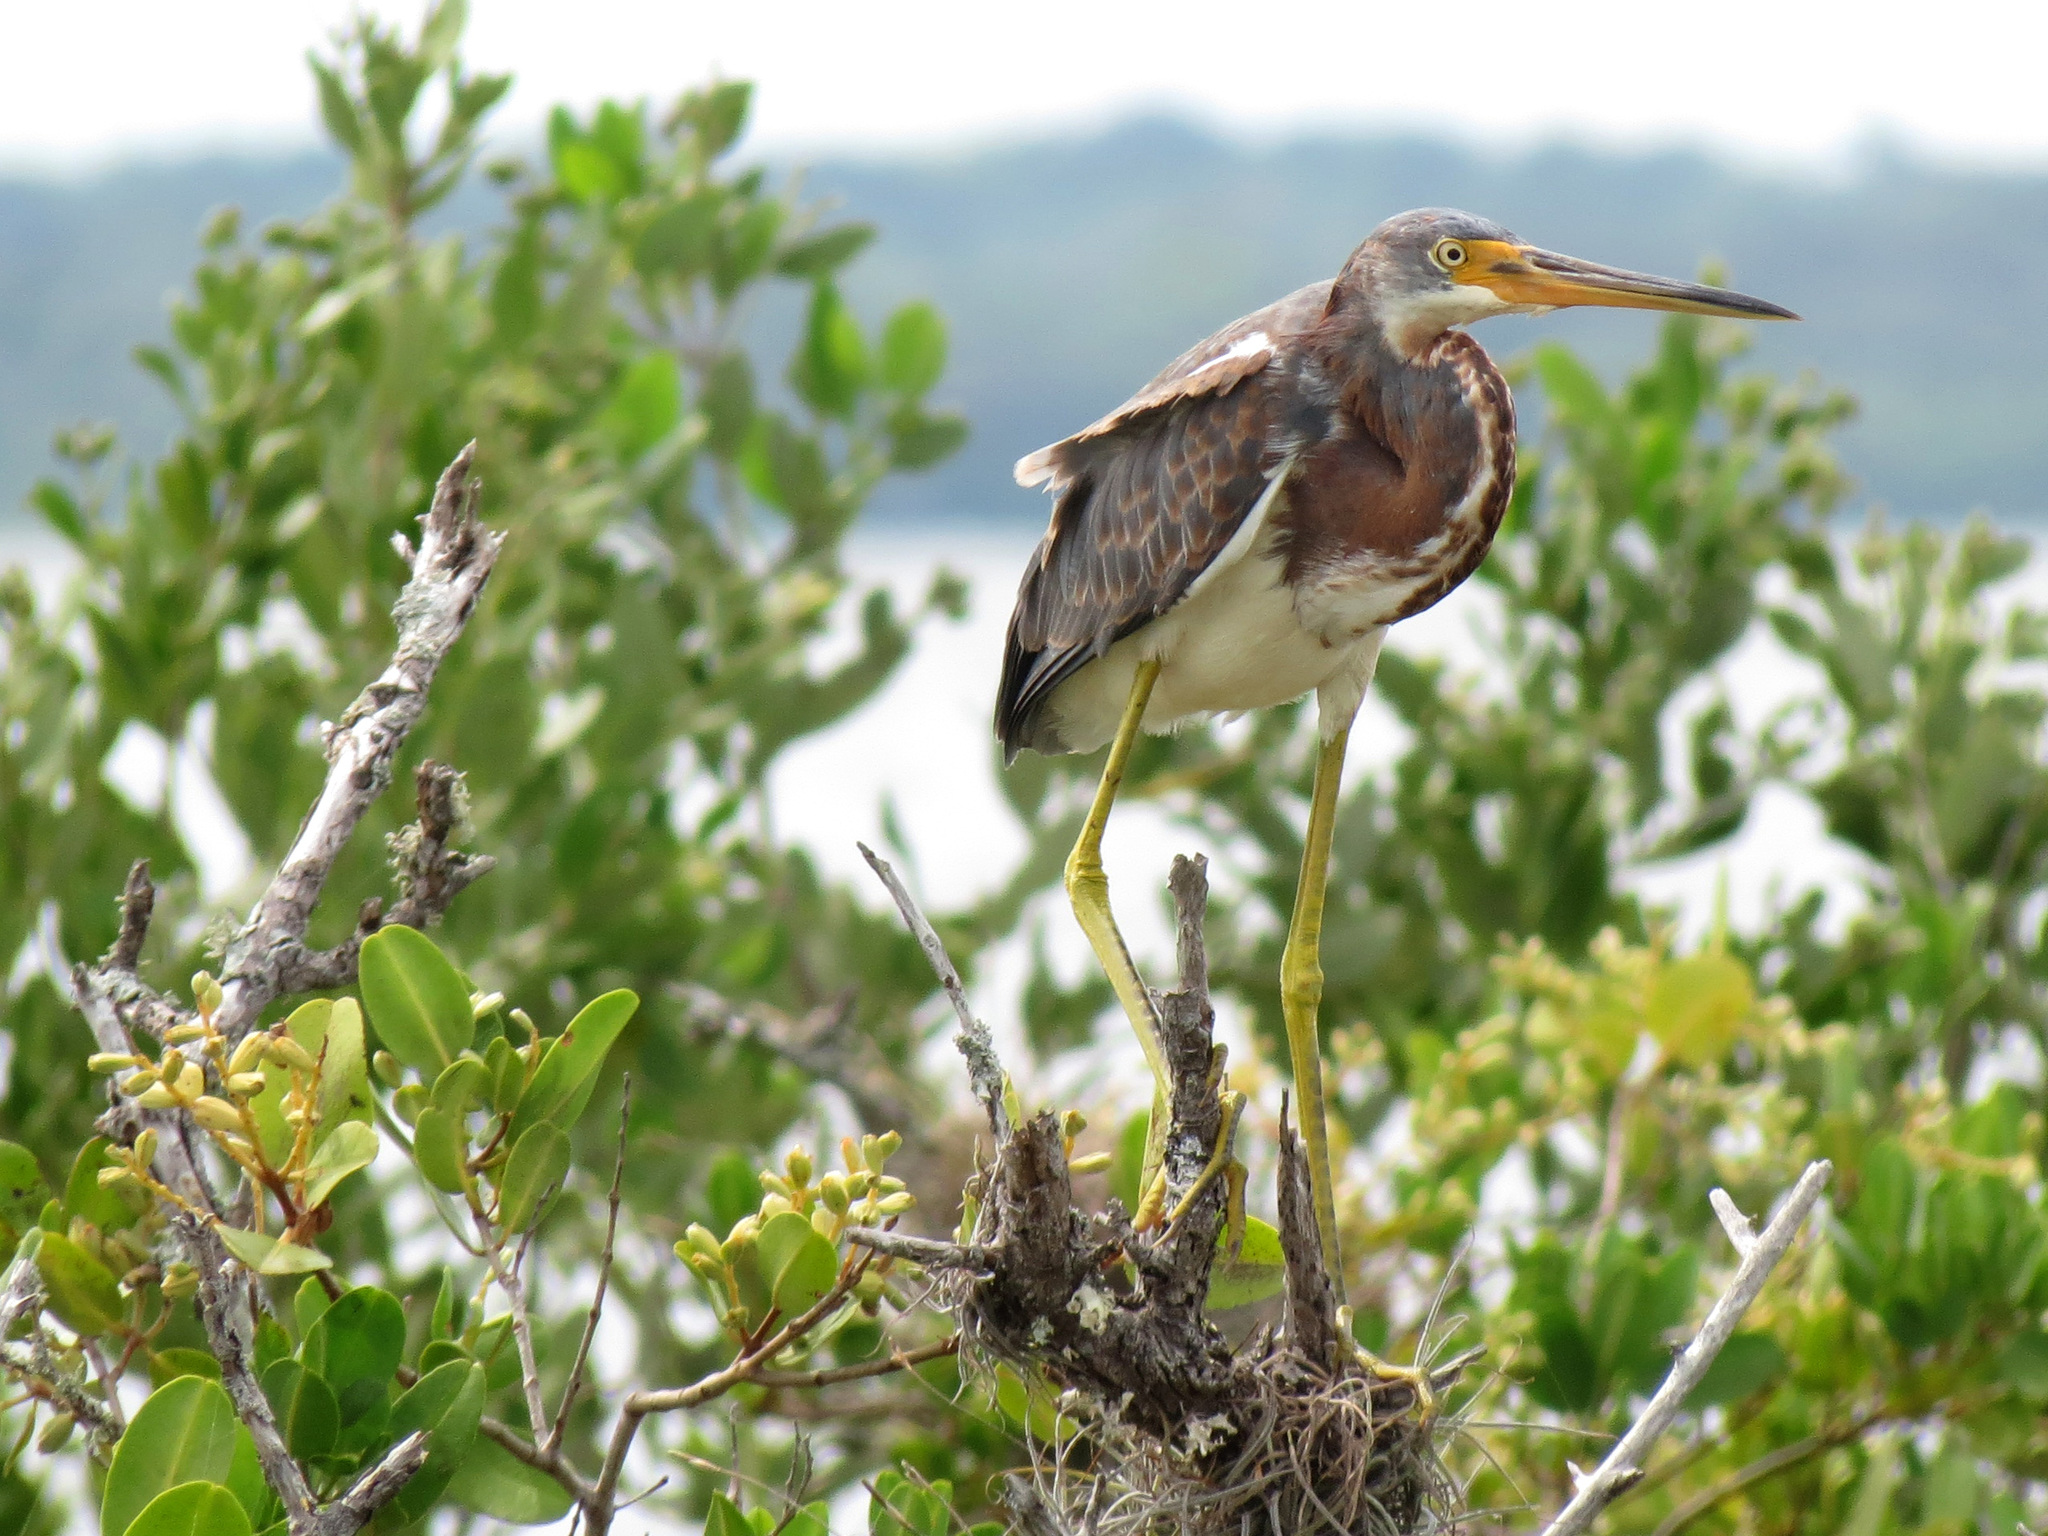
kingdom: Animalia
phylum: Chordata
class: Aves
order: Pelecaniformes
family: Ardeidae
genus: Egretta
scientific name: Egretta tricolor
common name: Tricolored heron
